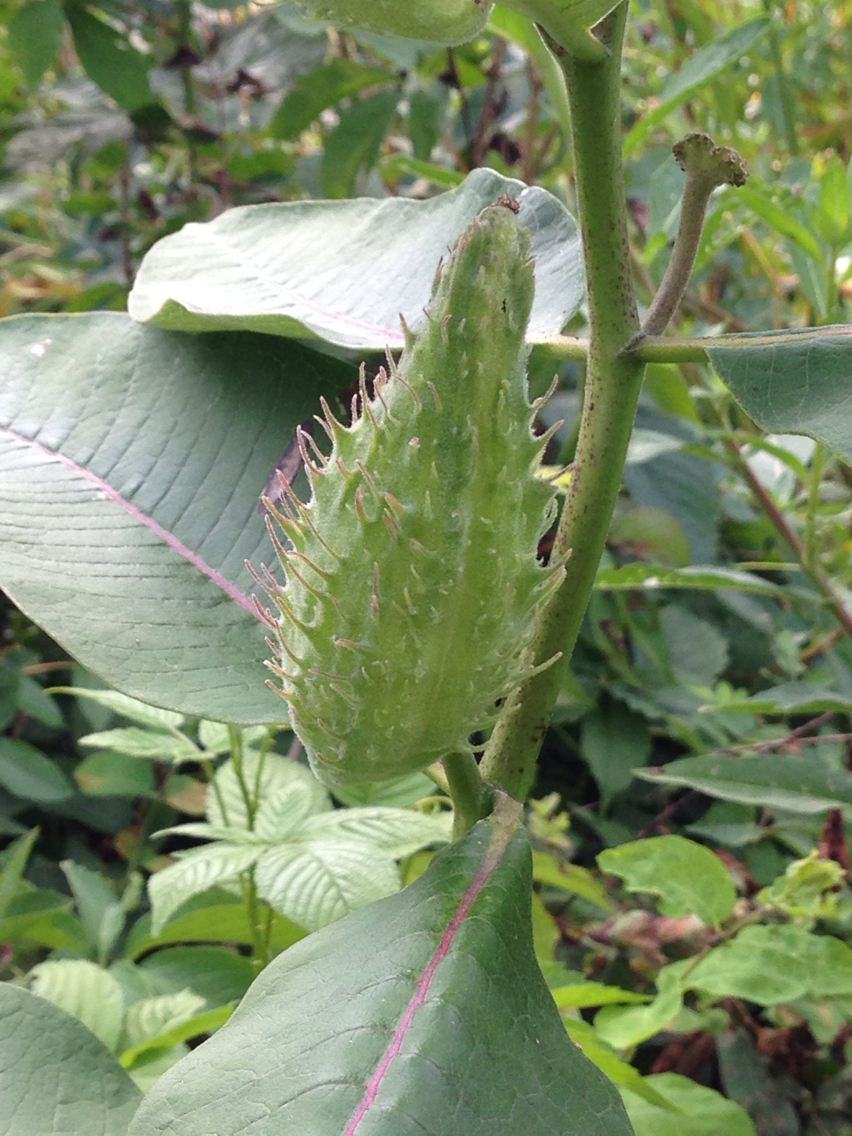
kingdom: Plantae
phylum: Tracheophyta
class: Magnoliopsida
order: Gentianales
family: Apocynaceae
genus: Asclepias
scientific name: Asclepias syriaca
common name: Common milkweed
